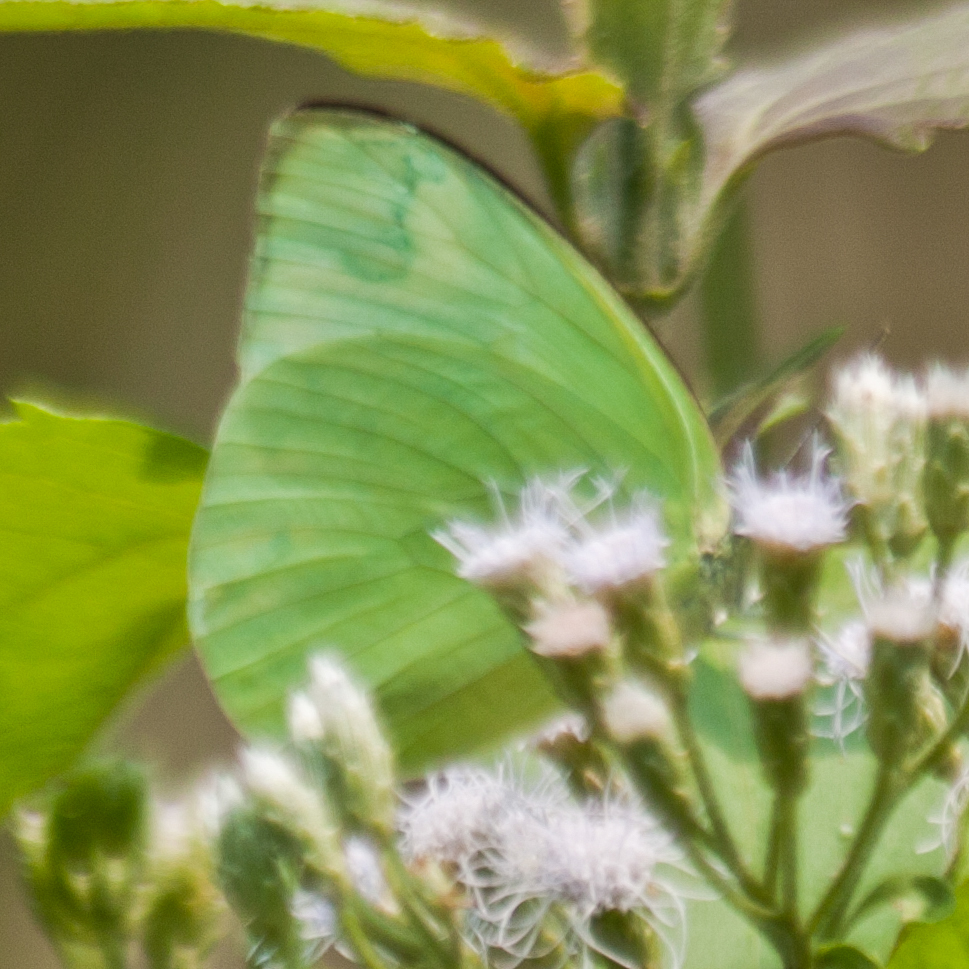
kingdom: Animalia
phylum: Arthropoda
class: Insecta
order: Lepidoptera
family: Pieridae
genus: Catopsilia
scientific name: Catopsilia pomona
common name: Common emigrant
